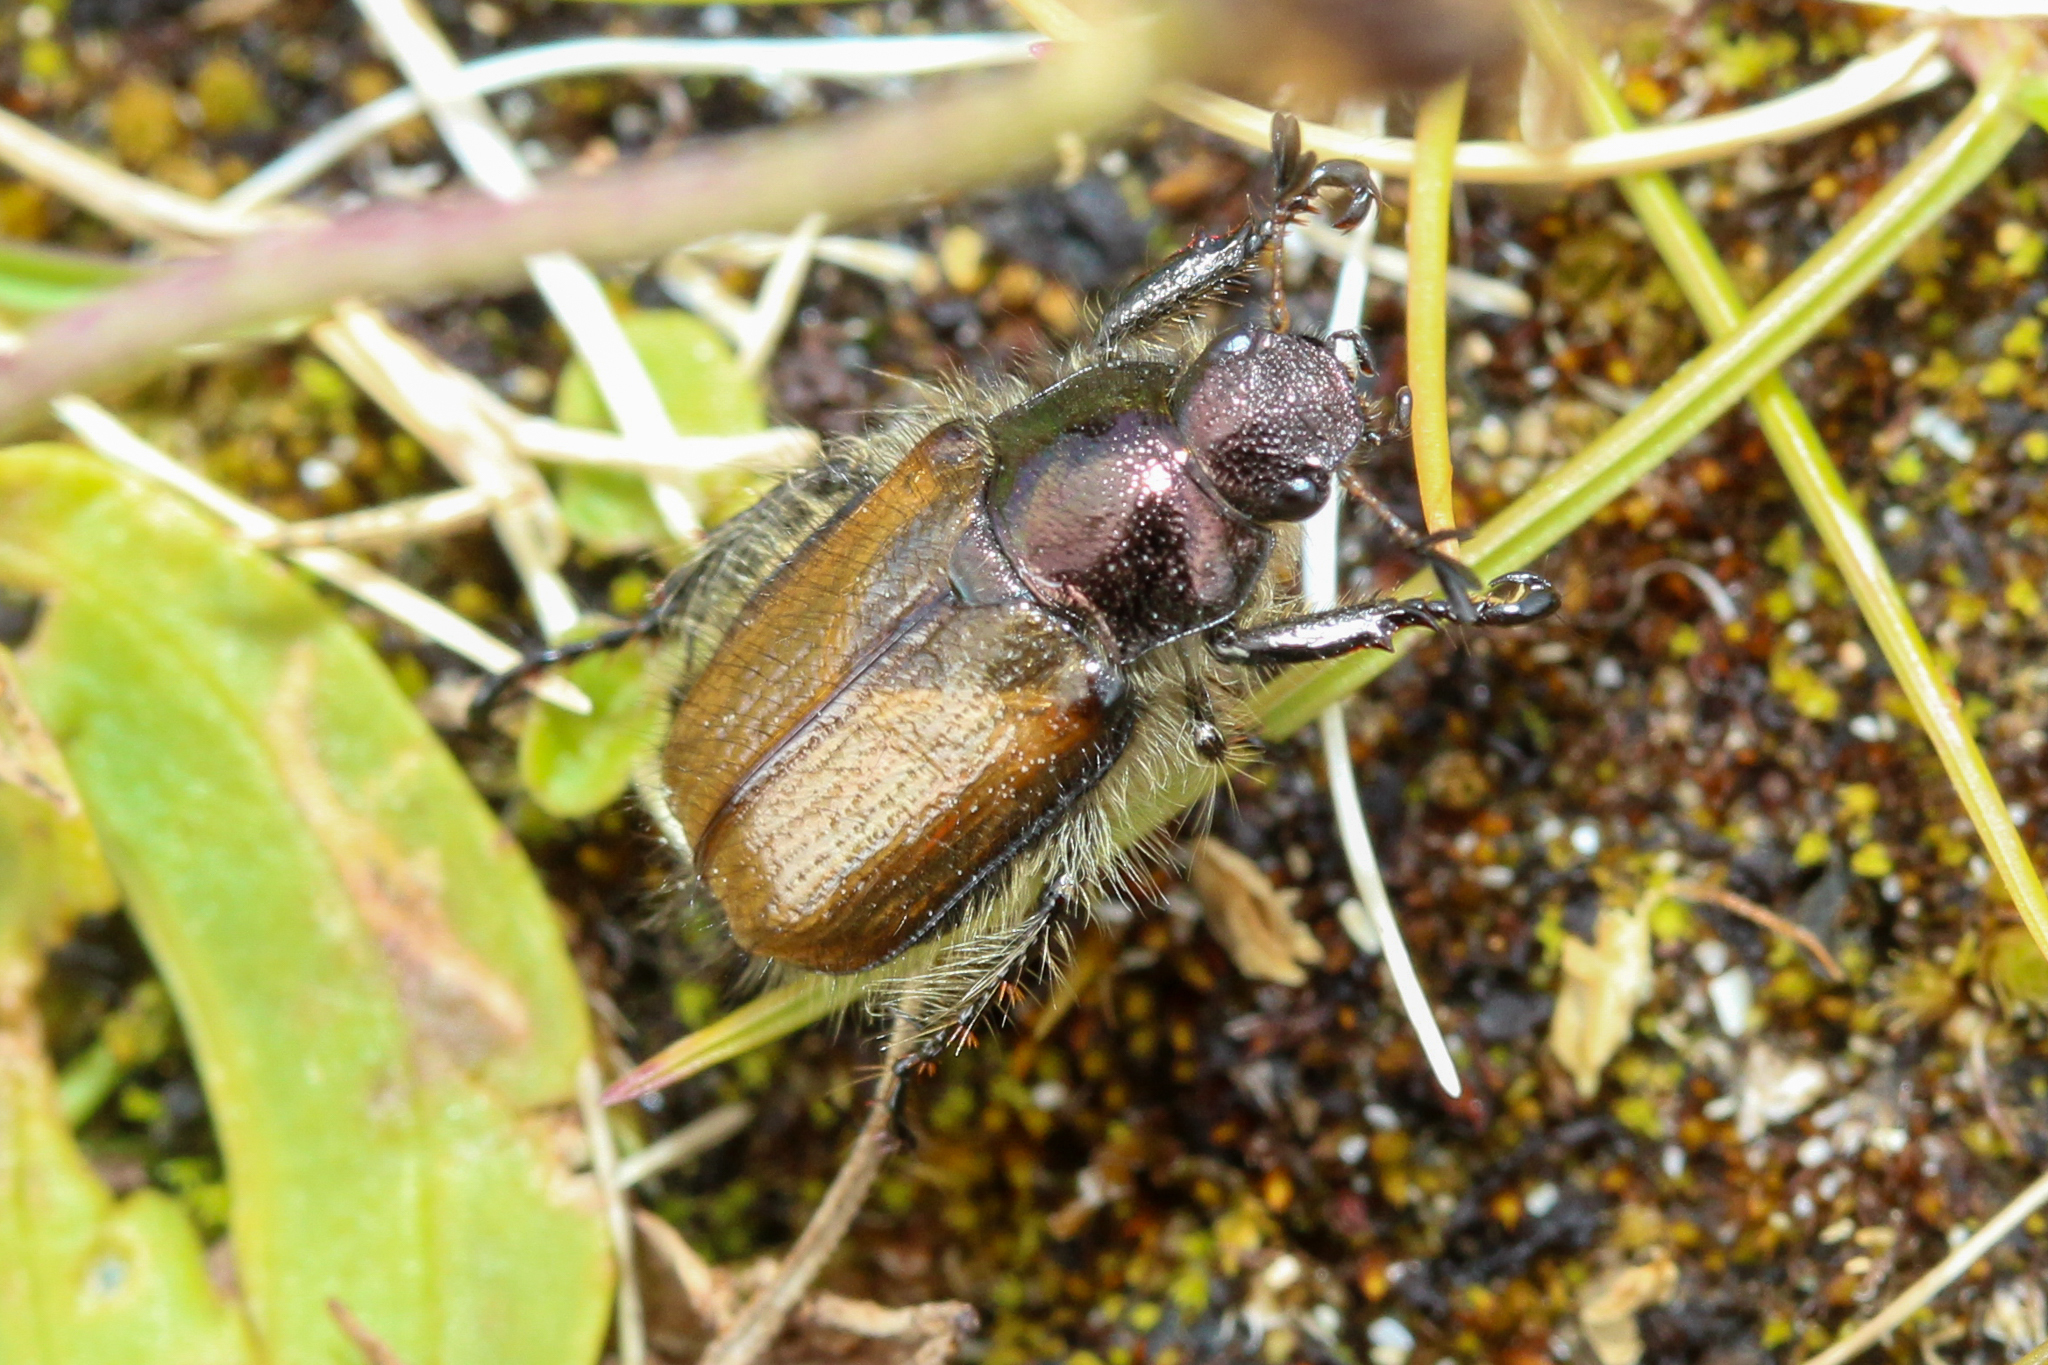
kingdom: Animalia
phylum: Arthropoda
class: Insecta
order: Coleoptera
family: Scarabaeidae
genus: Phyllopertha
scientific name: Phyllopertha horticola
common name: Garden chafer
